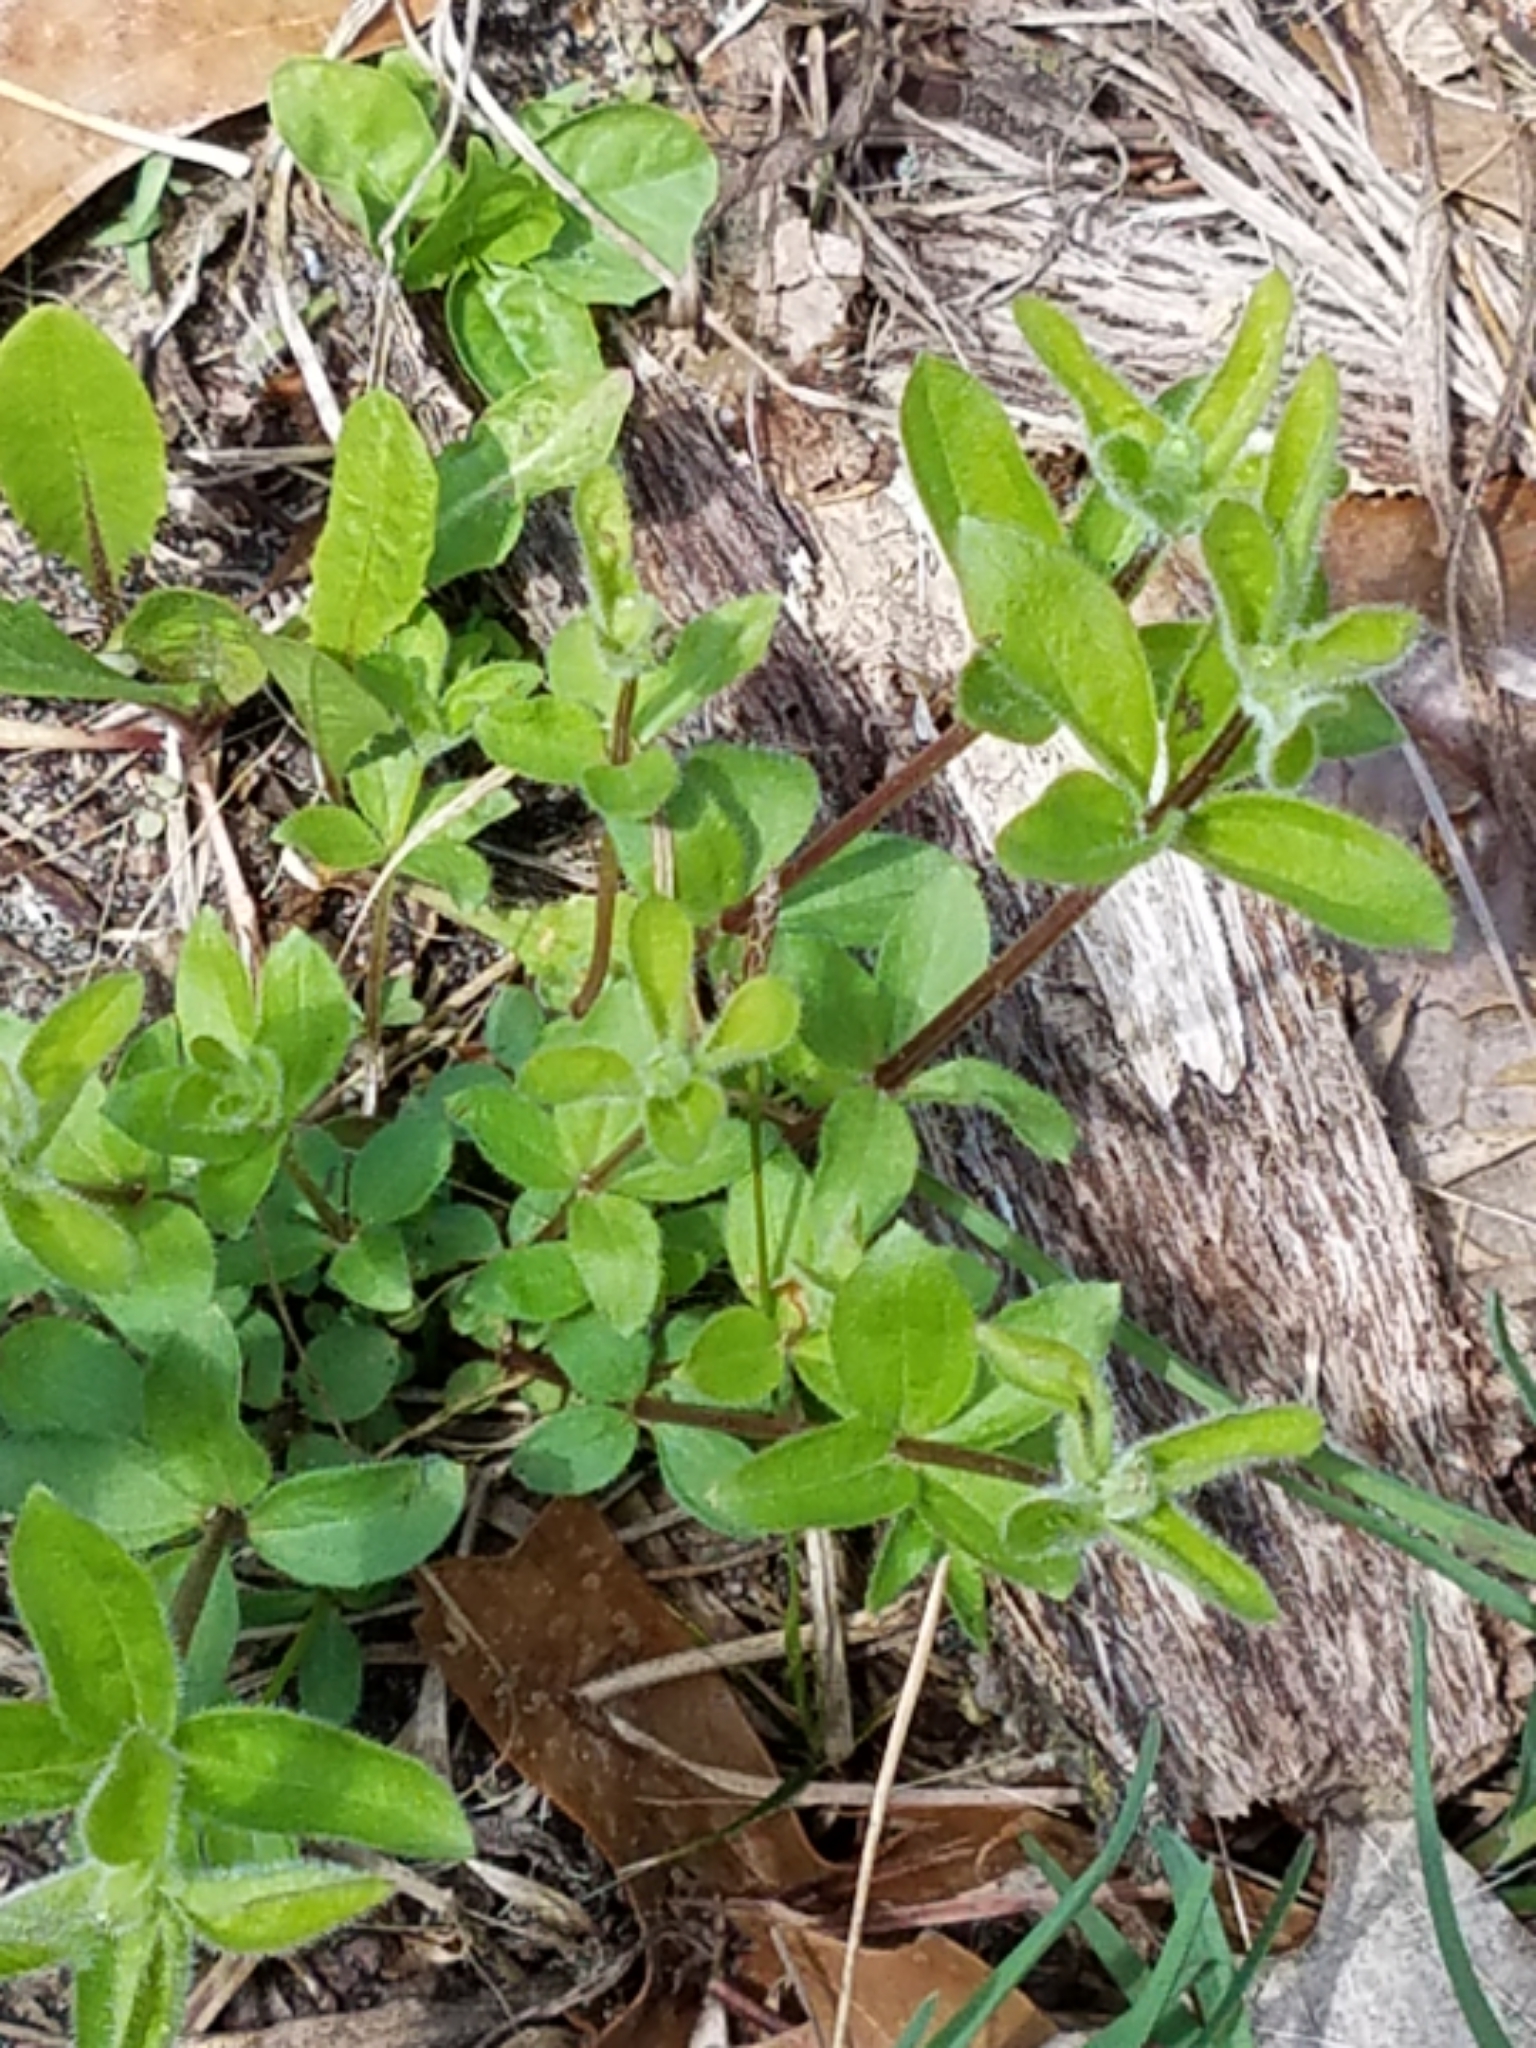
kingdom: Plantae
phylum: Tracheophyta
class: Magnoliopsida
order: Gentianales
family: Rubiaceae
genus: Galium
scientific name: Galium circaezans
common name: Forest bedstraw
